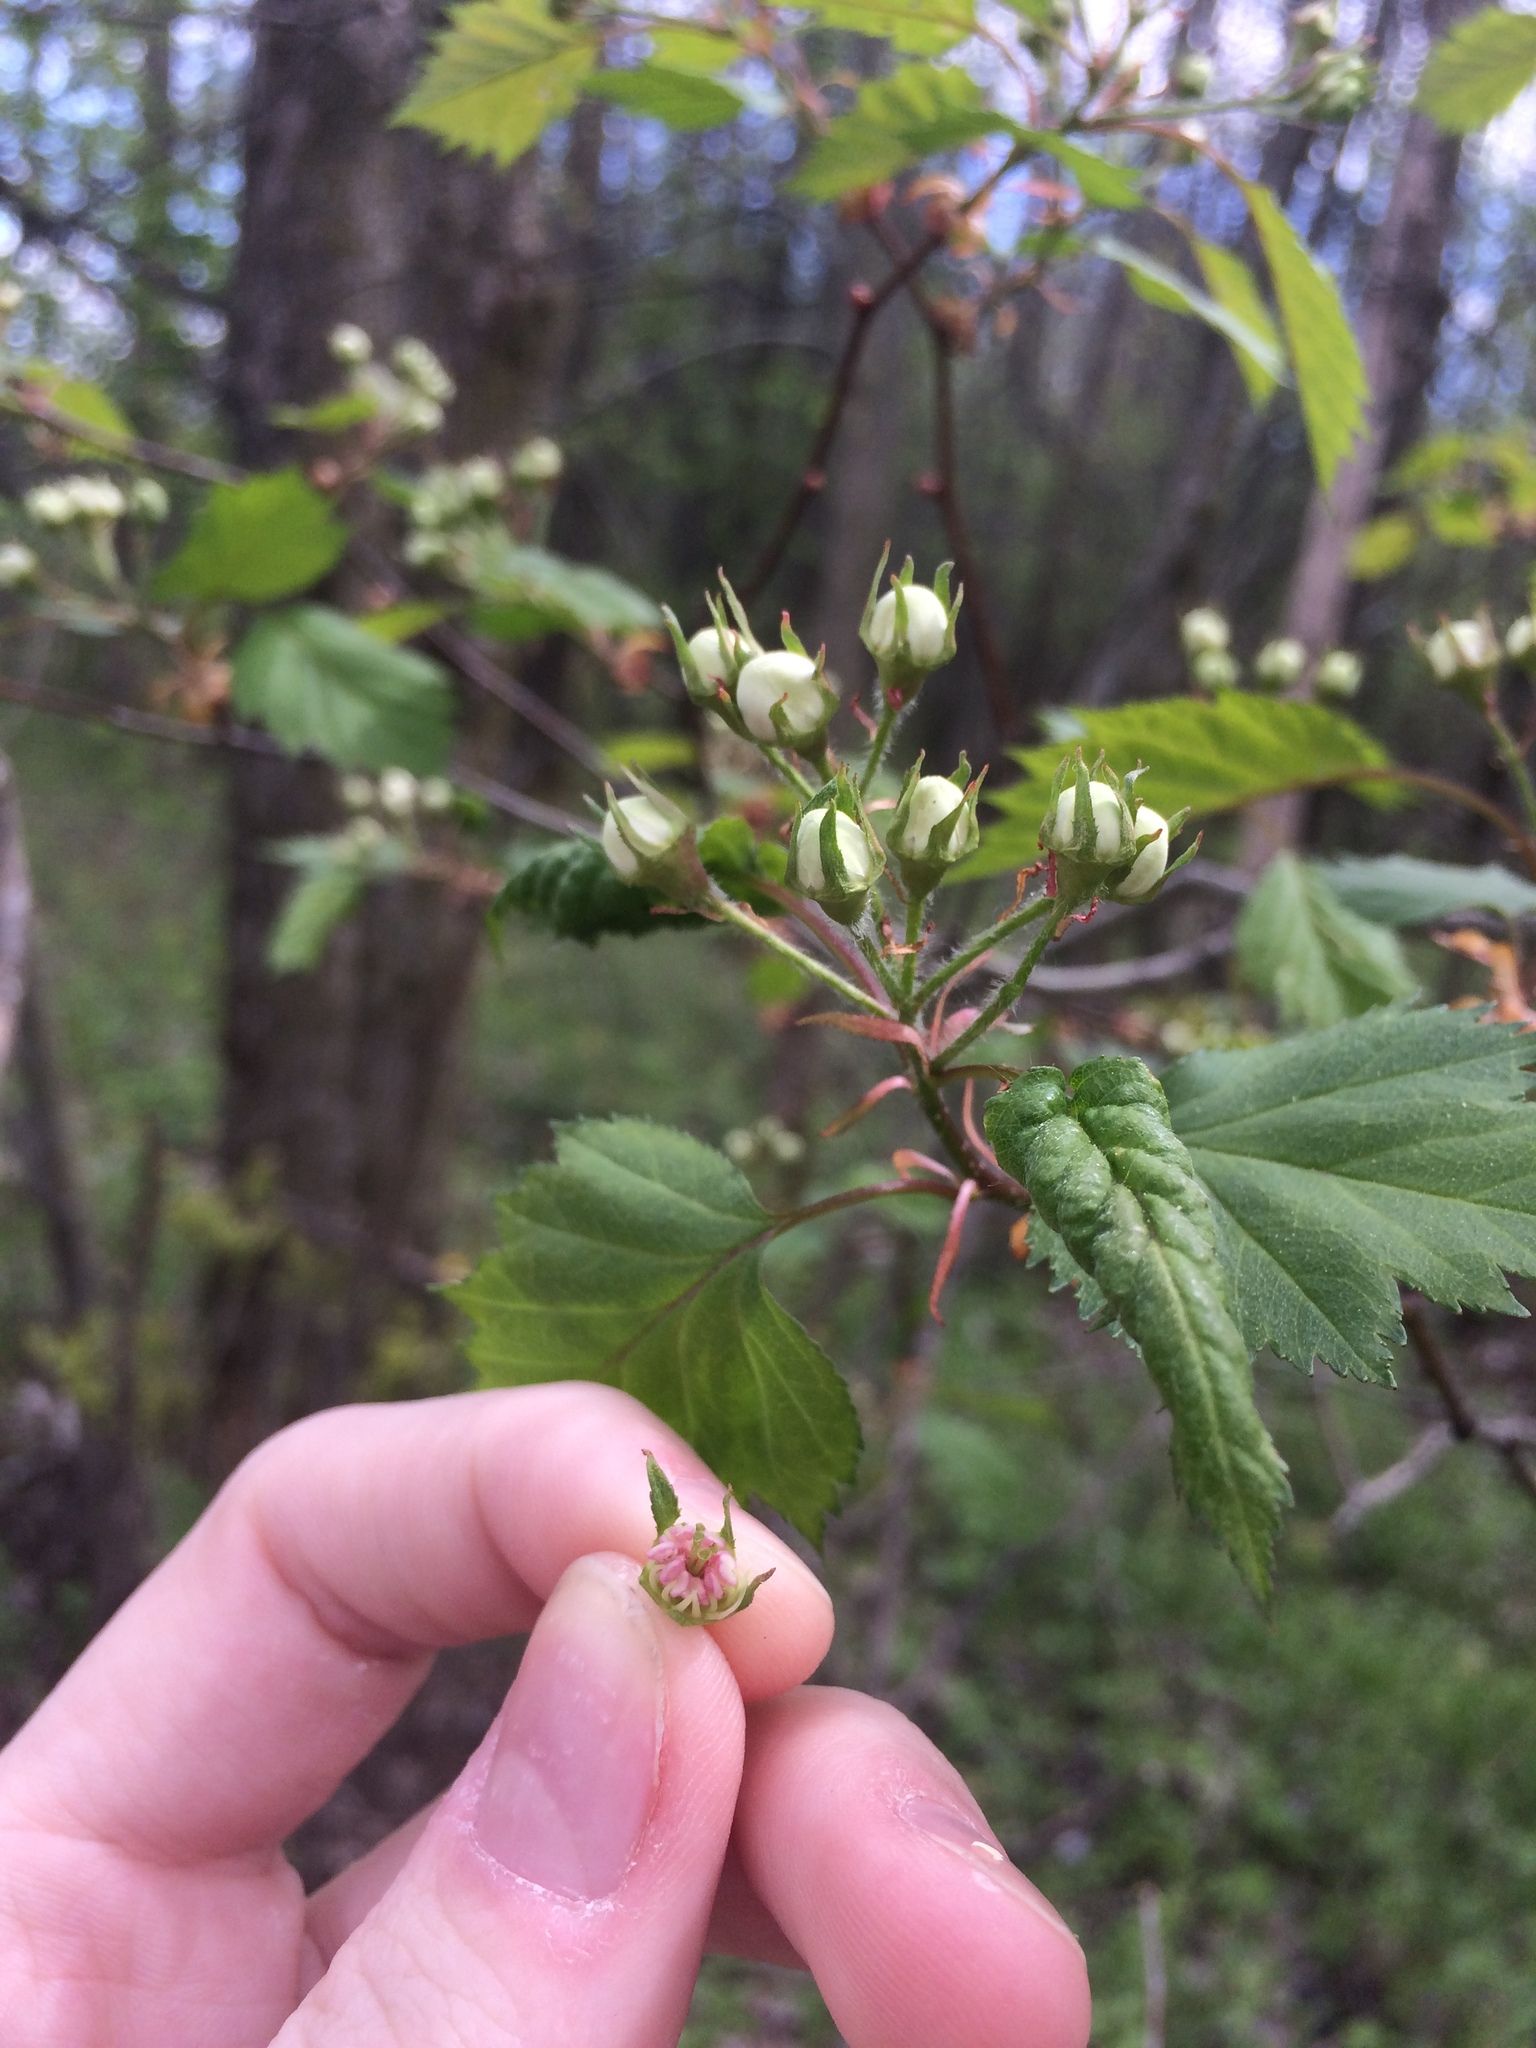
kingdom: Plantae
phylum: Tracheophyta
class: Magnoliopsida
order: Rosales
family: Rosaceae
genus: Crataegus
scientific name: Crataegus flabellata
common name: Bosc's hawthorn
